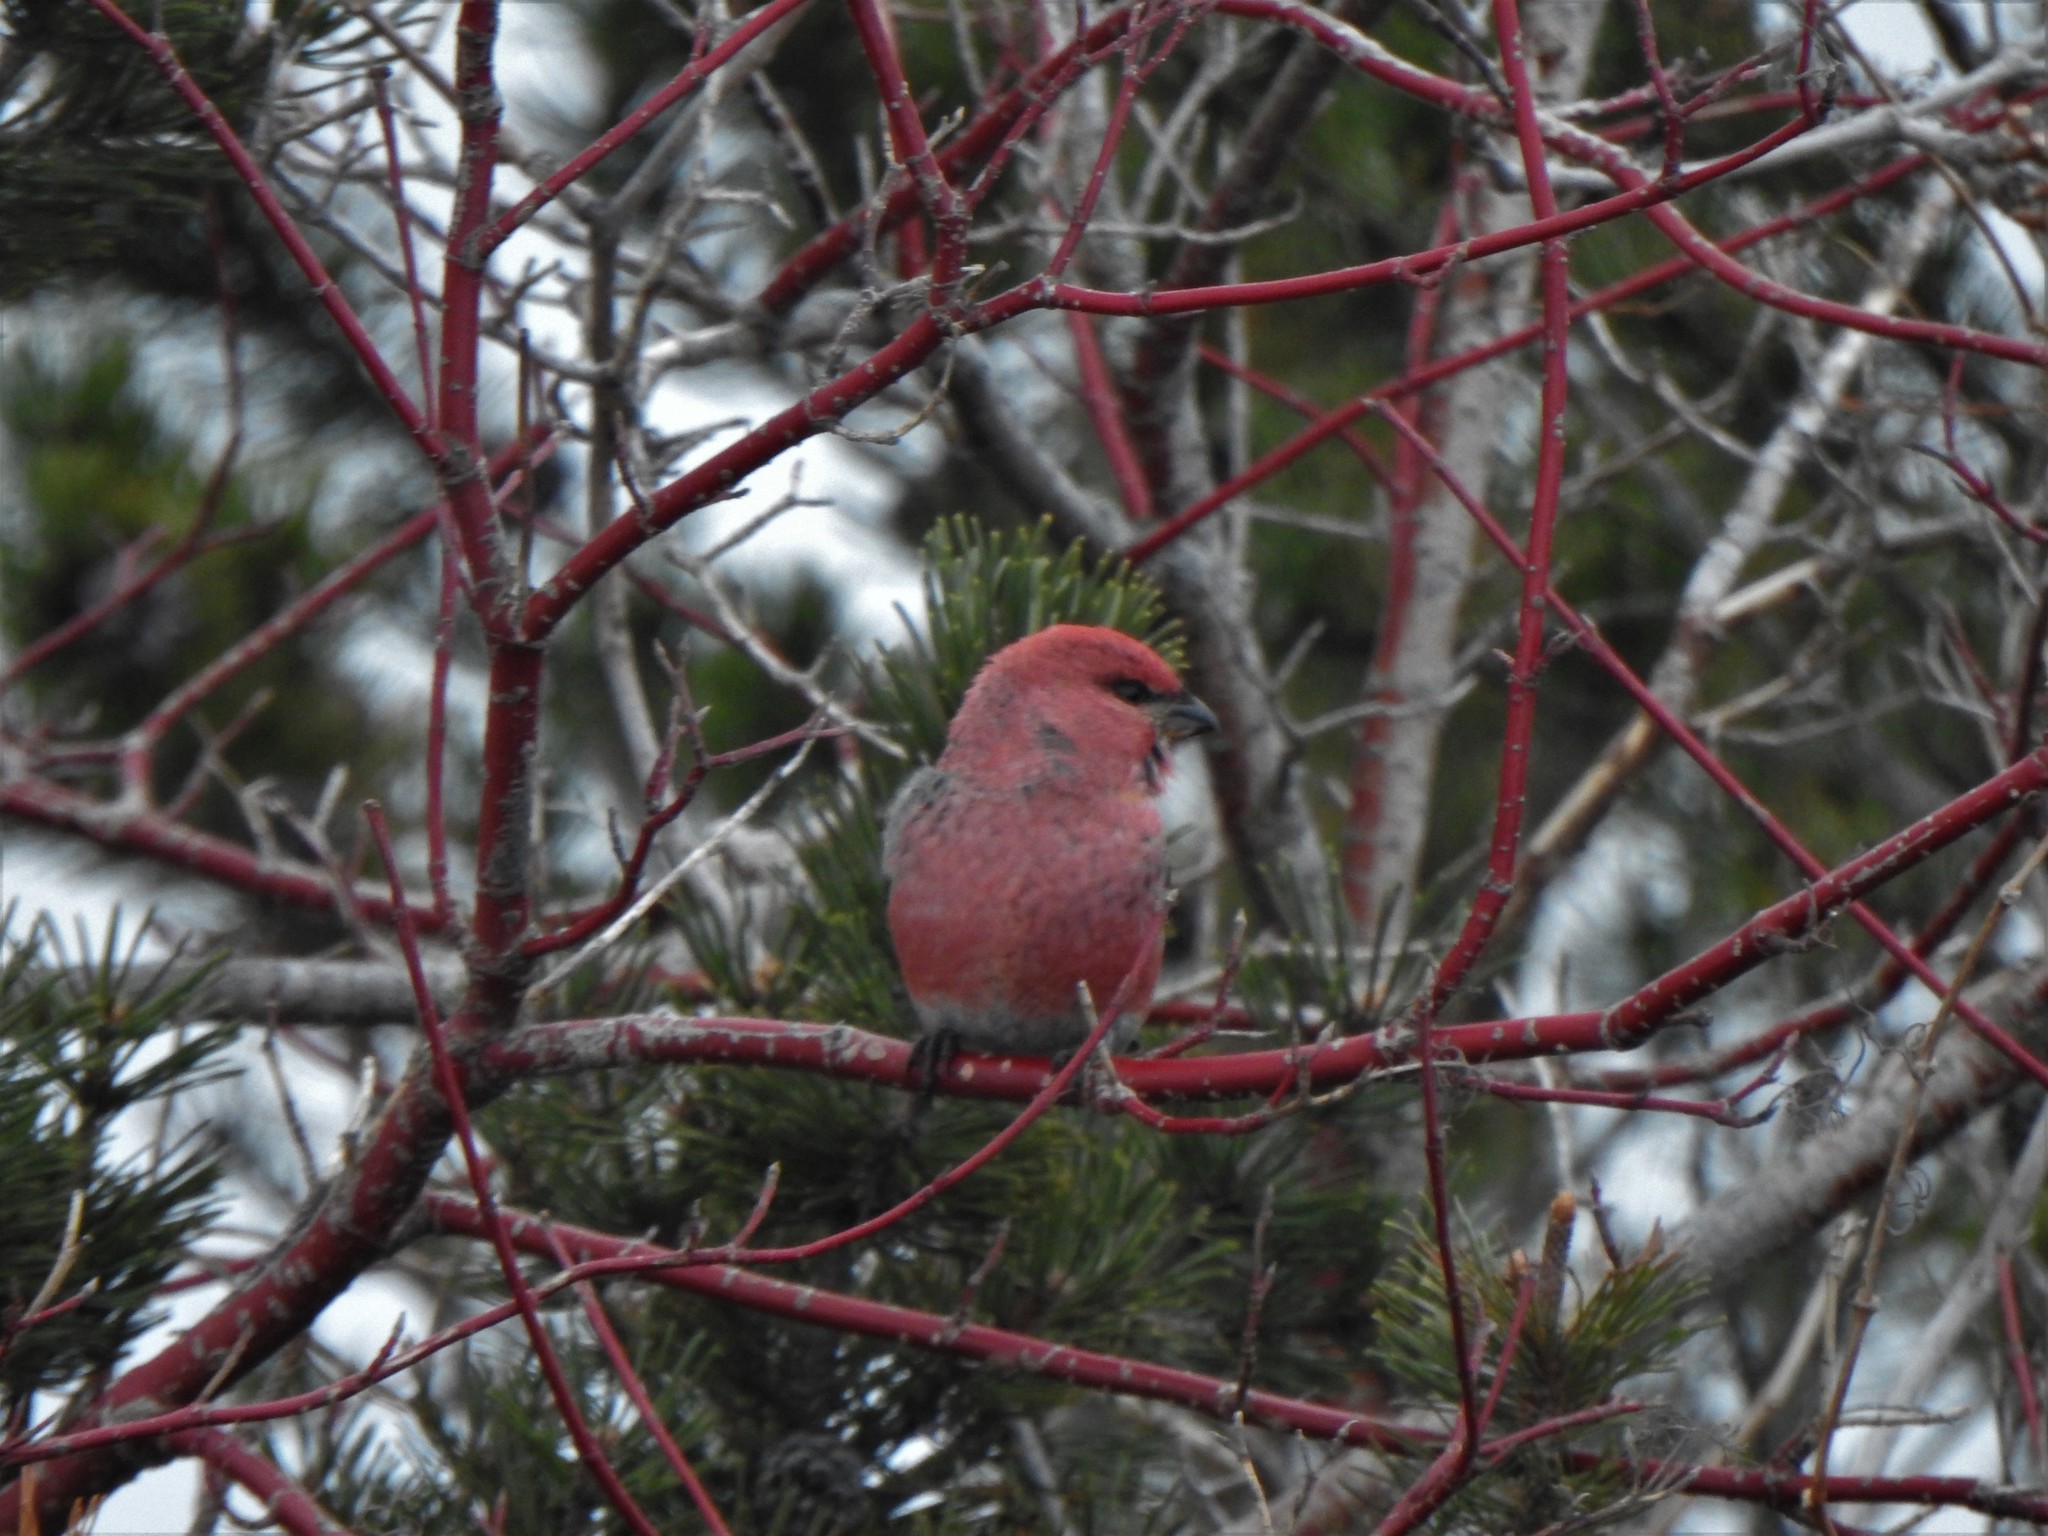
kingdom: Animalia
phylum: Chordata
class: Aves
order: Passeriformes
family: Fringillidae
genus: Pinicola
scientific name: Pinicola enucleator
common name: Pine grosbeak
